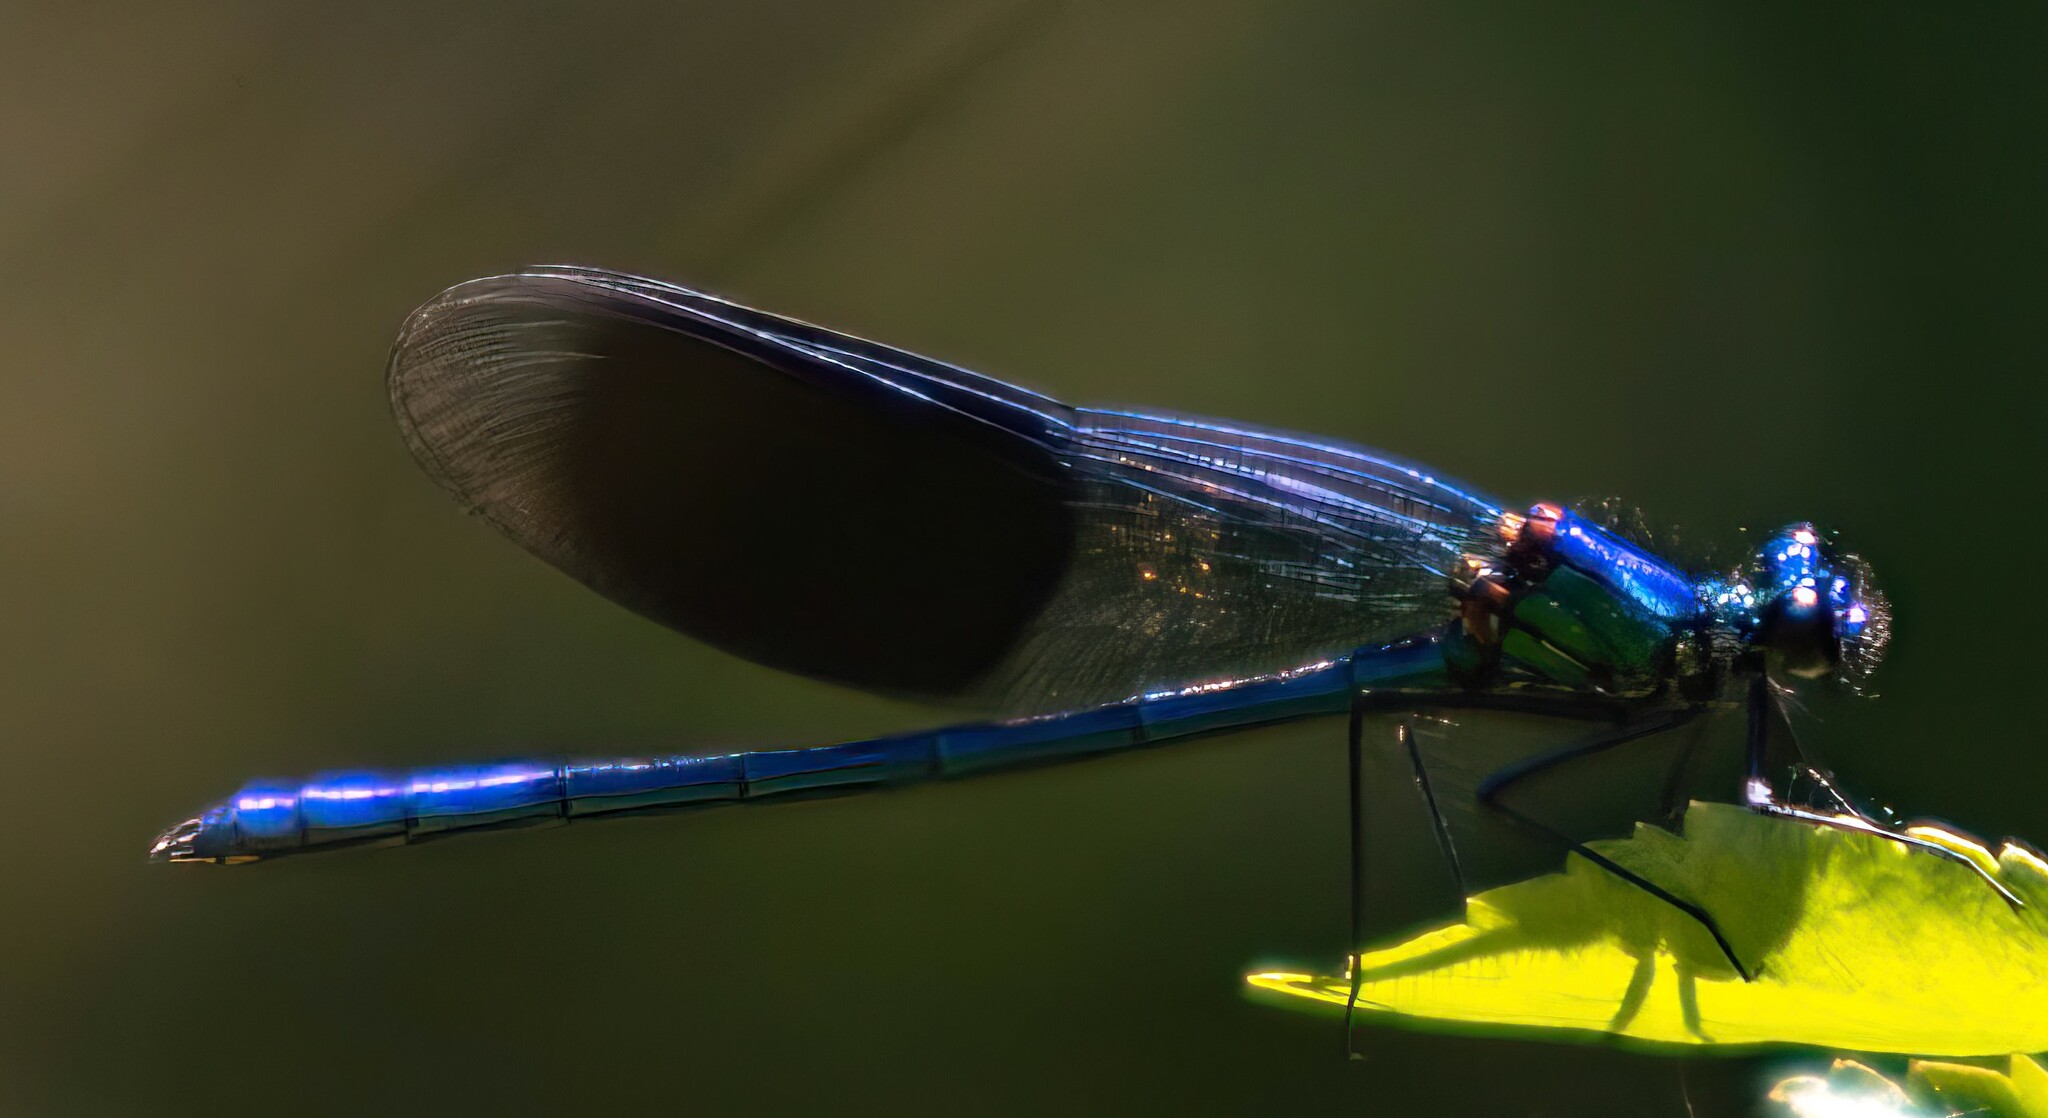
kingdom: Animalia
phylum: Arthropoda
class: Insecta
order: Odonata
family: Calopterygidae
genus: Calopteryx
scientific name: Calopteryx splendens
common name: Banded demoiselle
